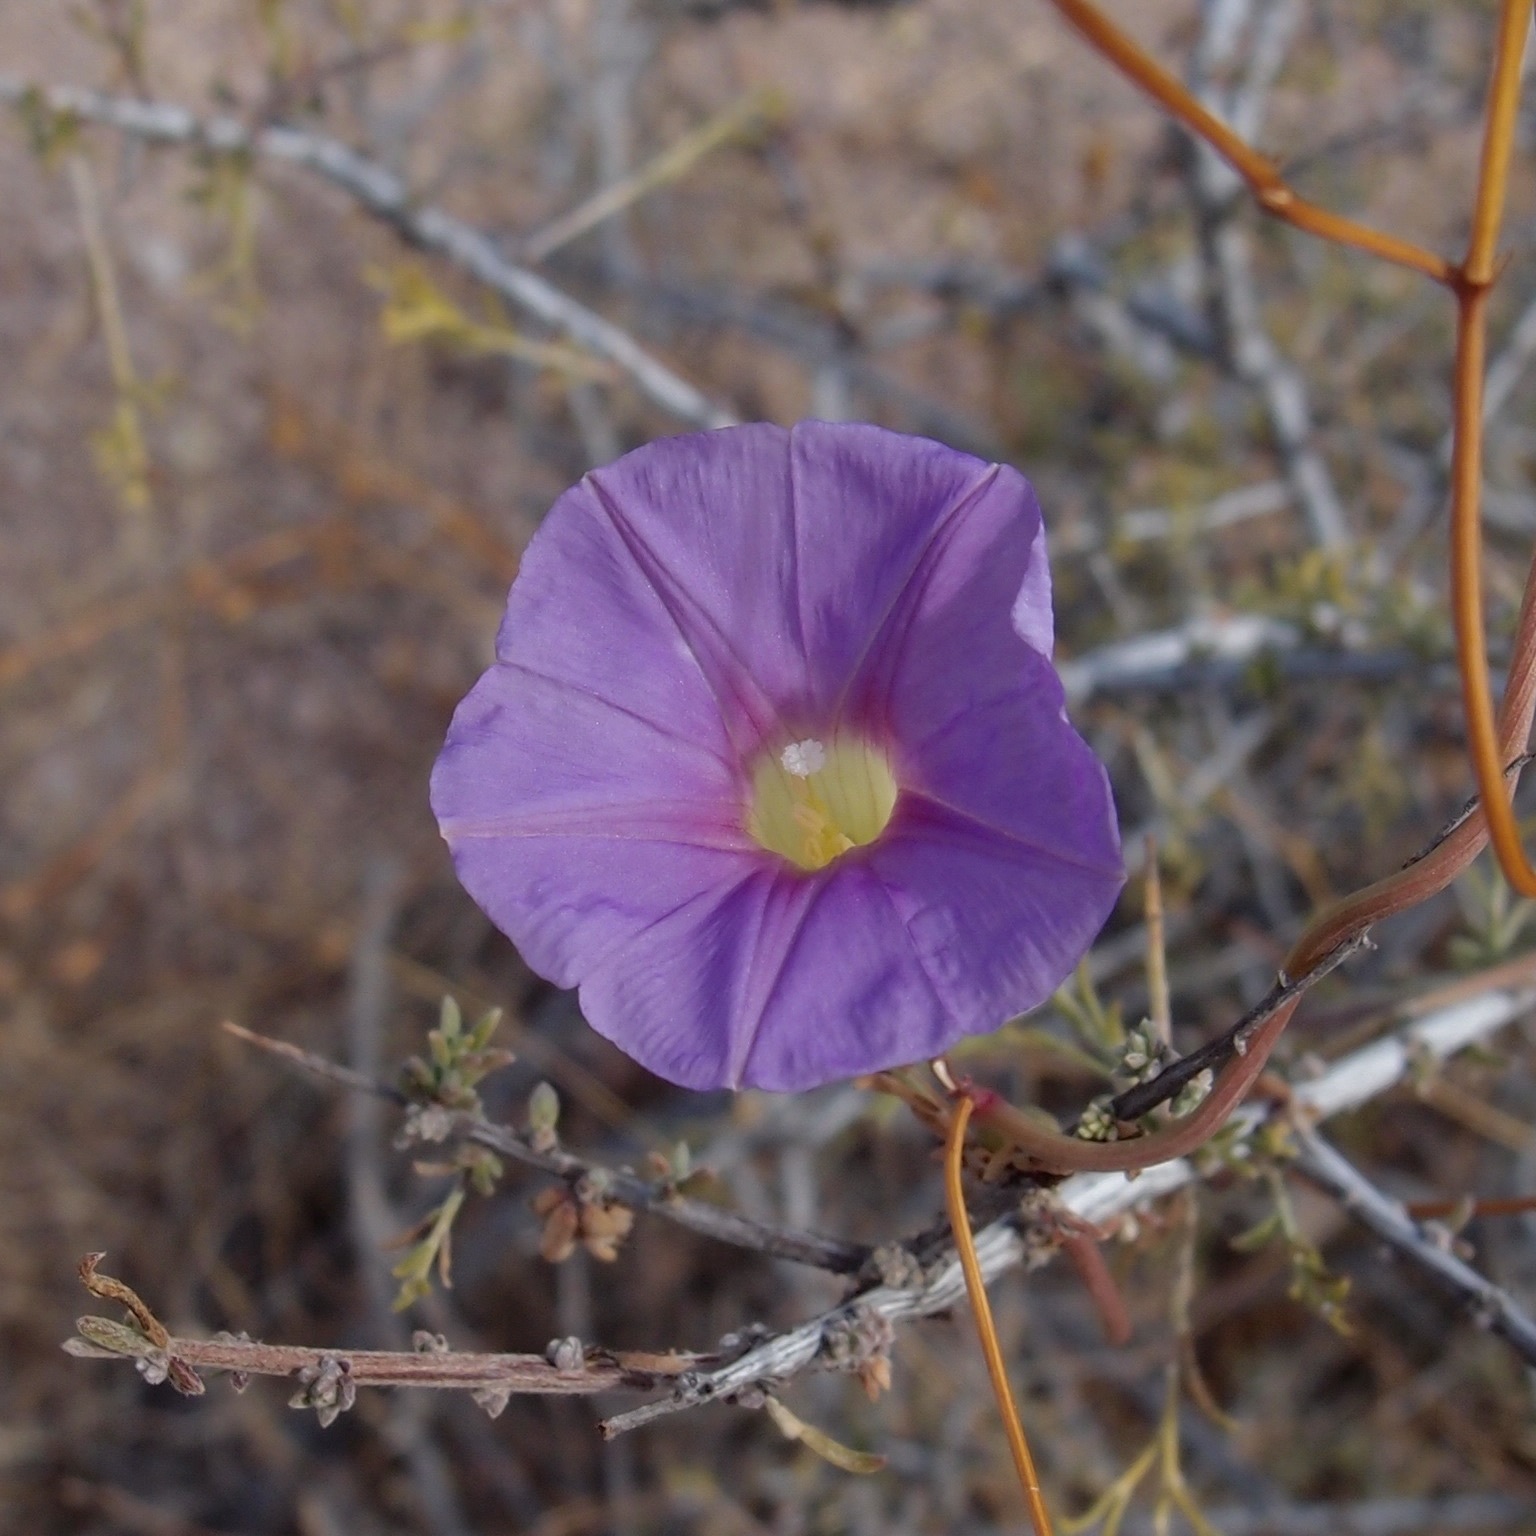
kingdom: Plantae
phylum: Tracheophyta
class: Magnoliopsida
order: Solanales
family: Convolvulaceae
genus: Ipomoea
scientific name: Ipomoea ternifolia
